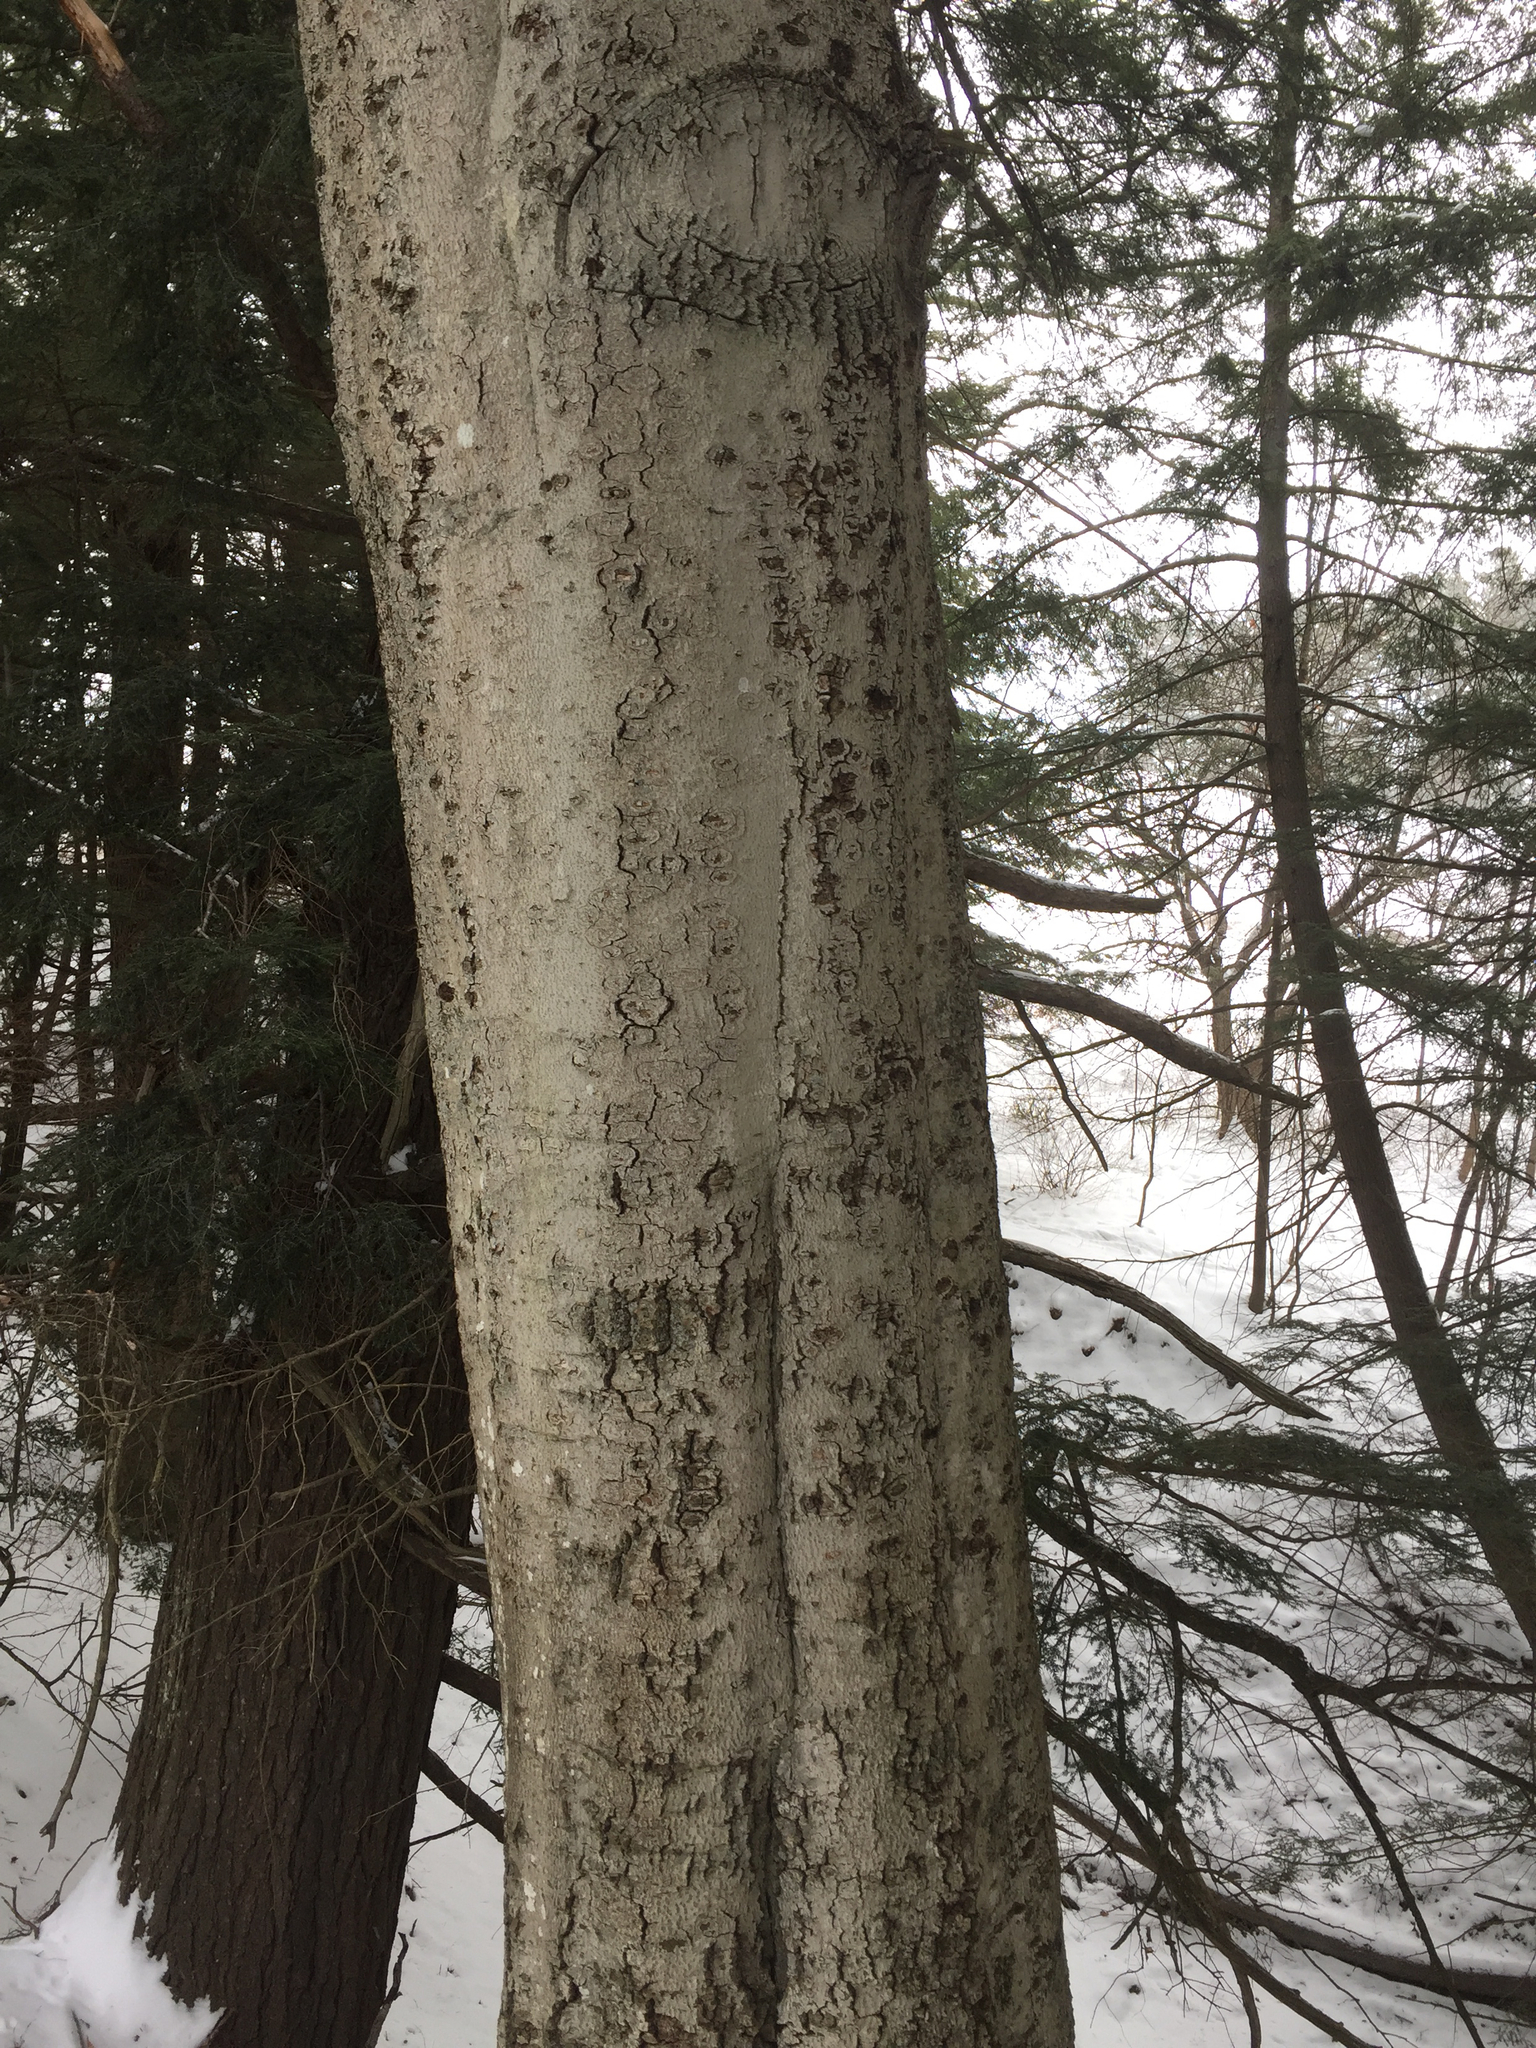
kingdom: Plantae
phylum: Tracheophyta
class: Magnoliopsida
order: Fagales
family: Fagaceae
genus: Fagus
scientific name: Fagus grandifolia
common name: American beech
